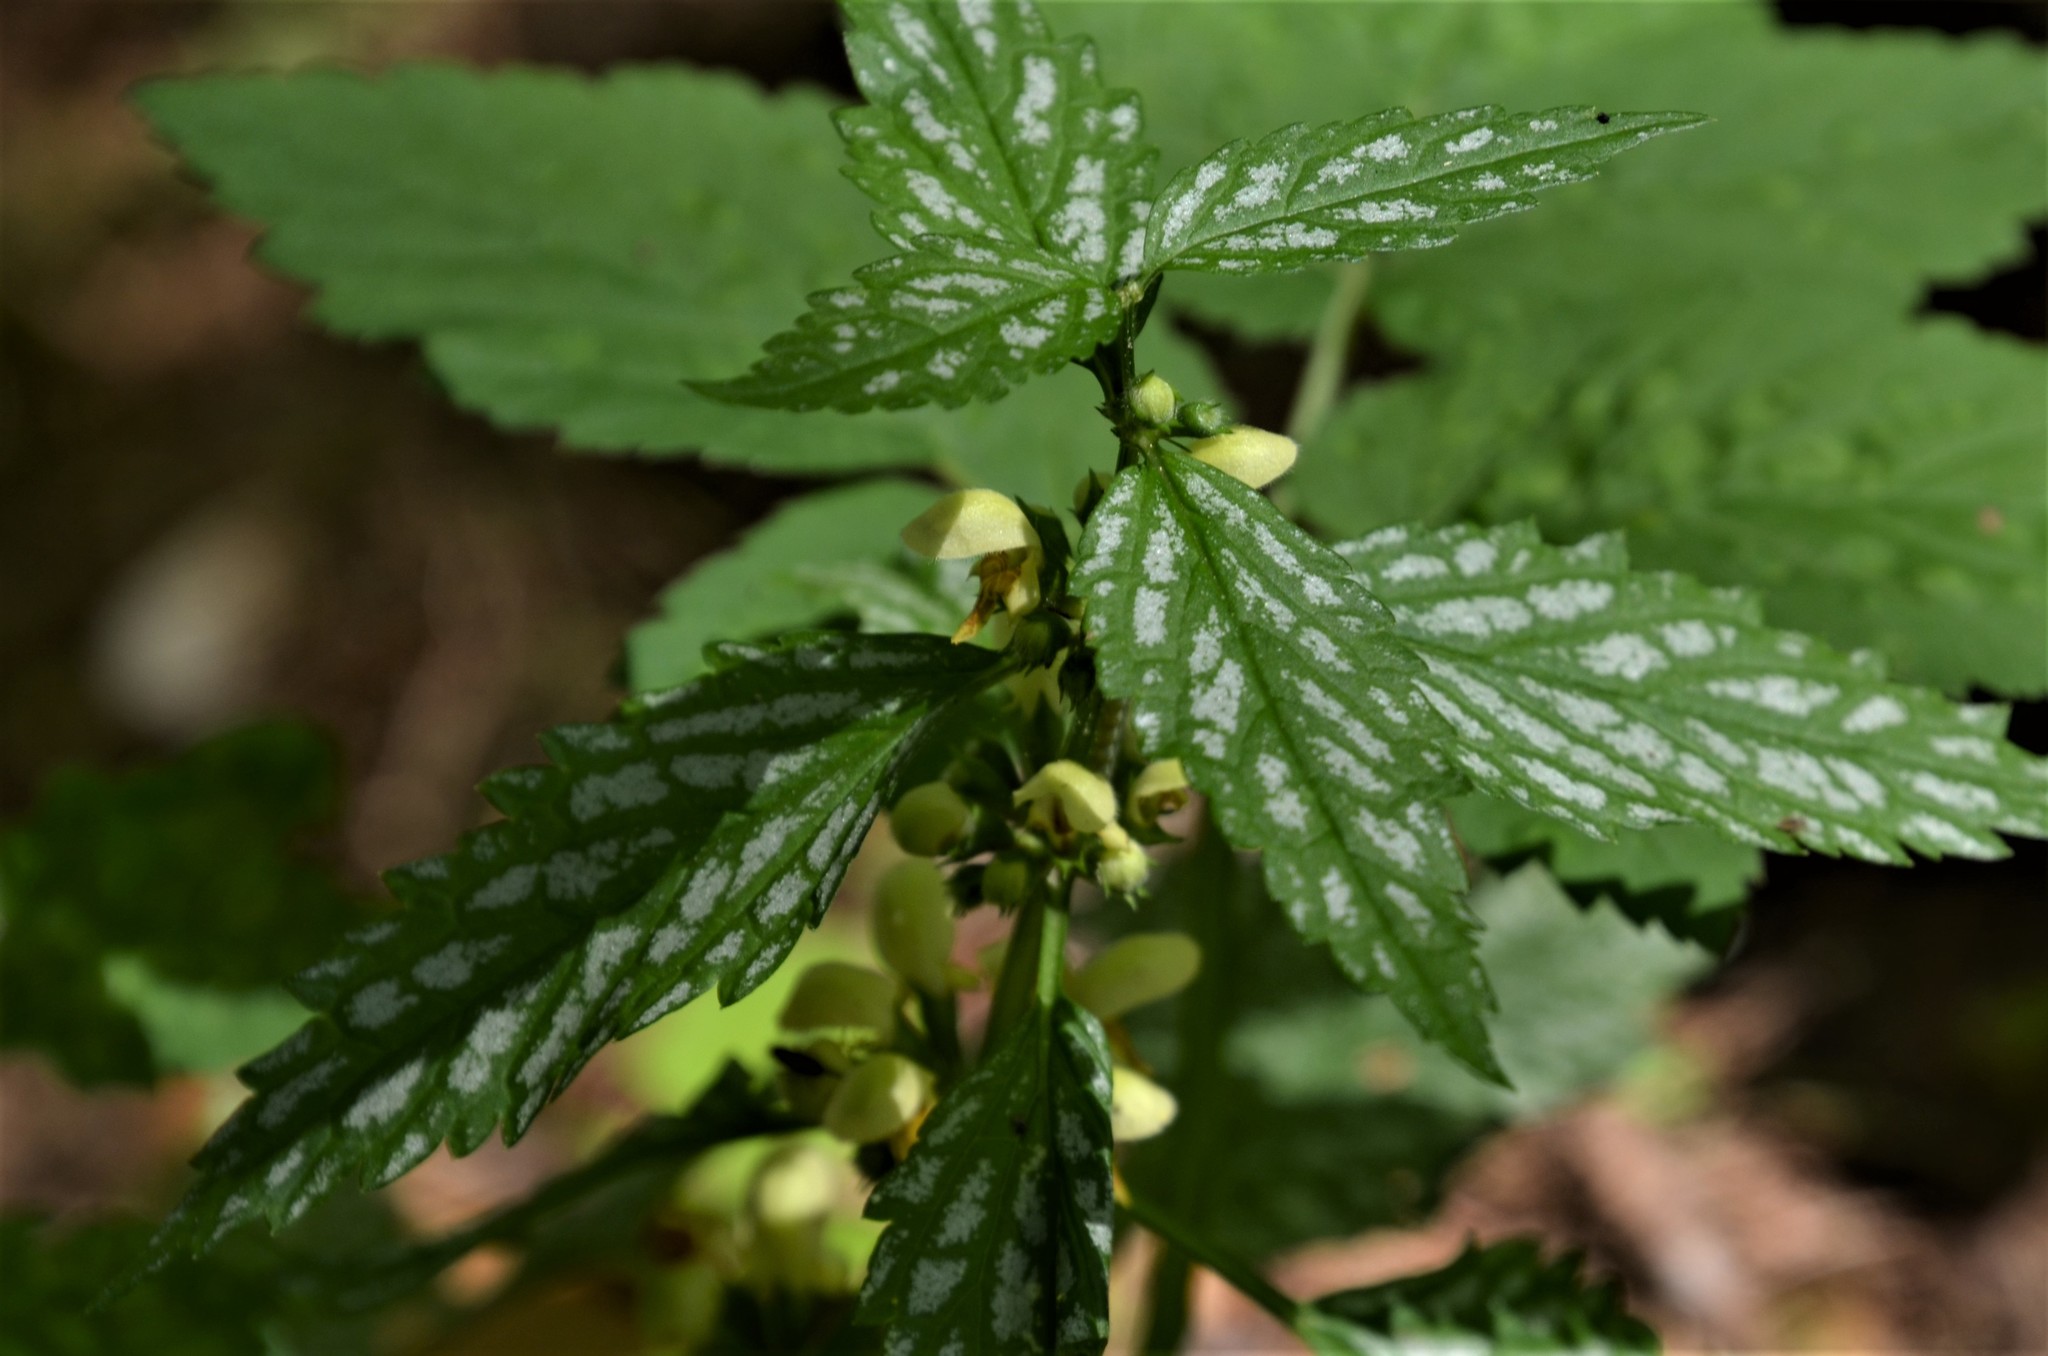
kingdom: Plantae
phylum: Tracheophyta
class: Magnoliopsida
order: Lamiales
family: Lamiaceae
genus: Lamium
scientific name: Lamium galeobdolon
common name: Yellow archangel
